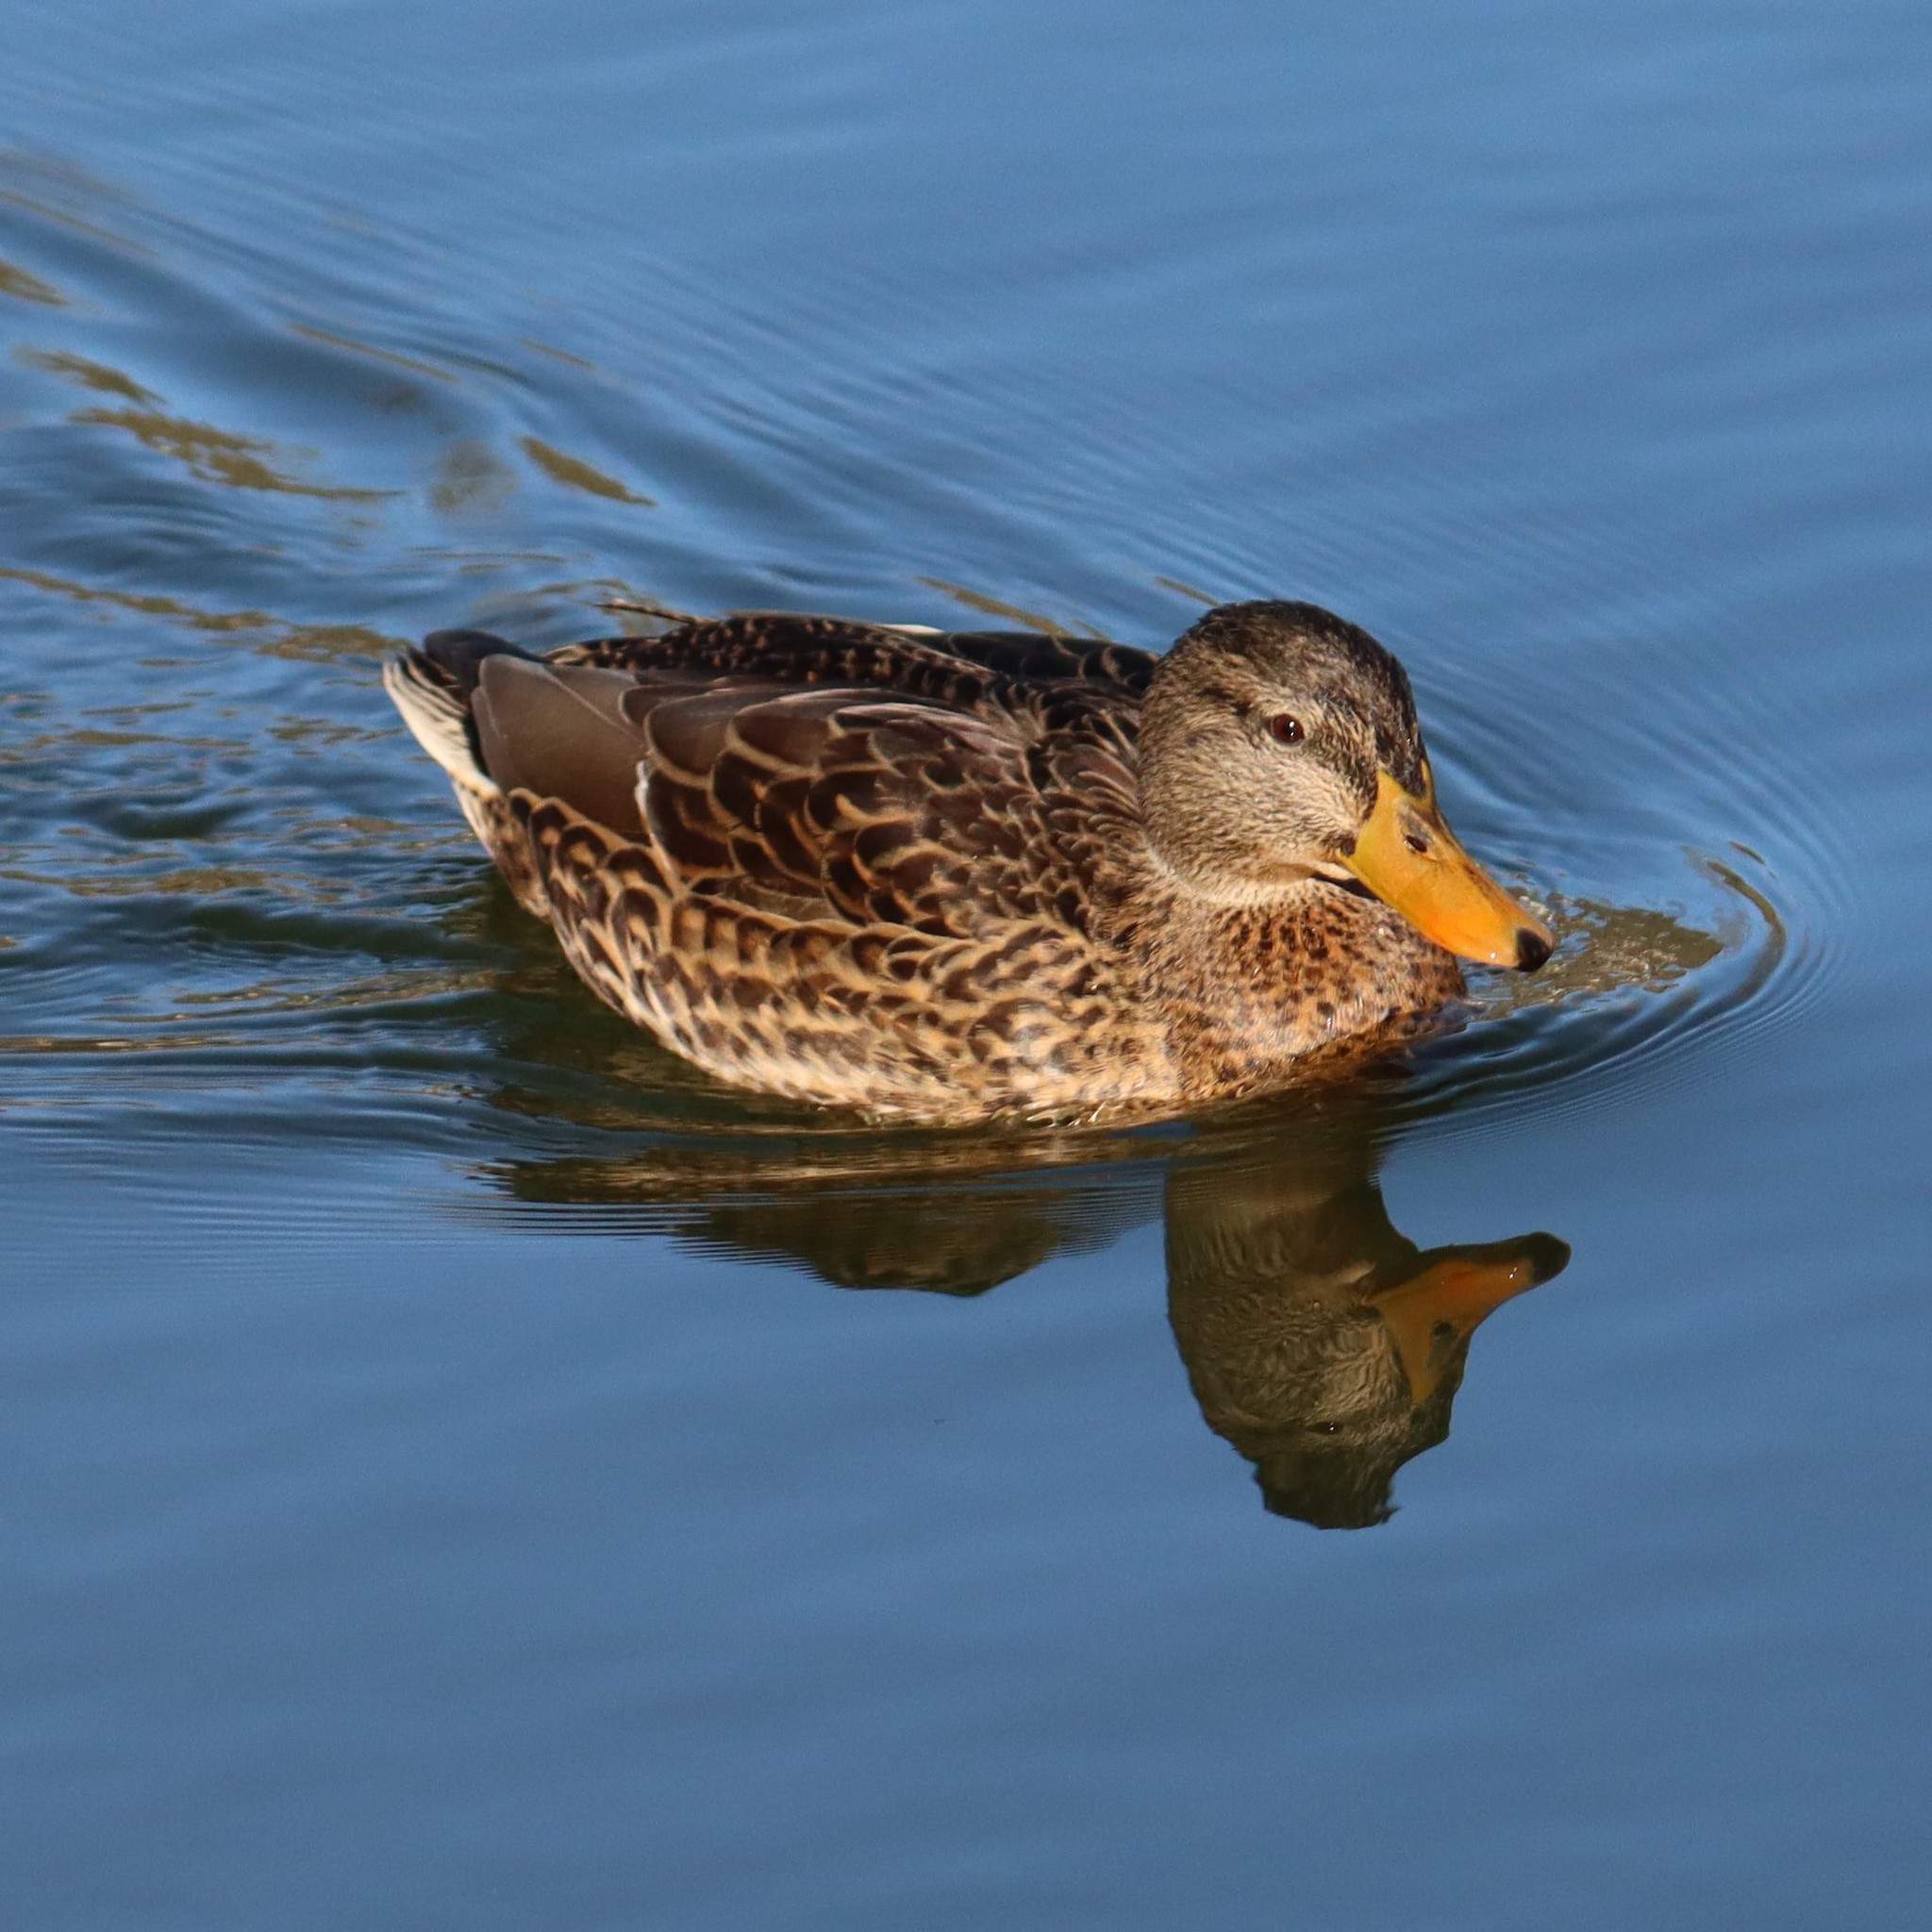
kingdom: Animalia
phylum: Chordata
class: Aves
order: Anseriformes
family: Anatidae
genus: Anas
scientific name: Anas platyrhynchos
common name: Mallard
